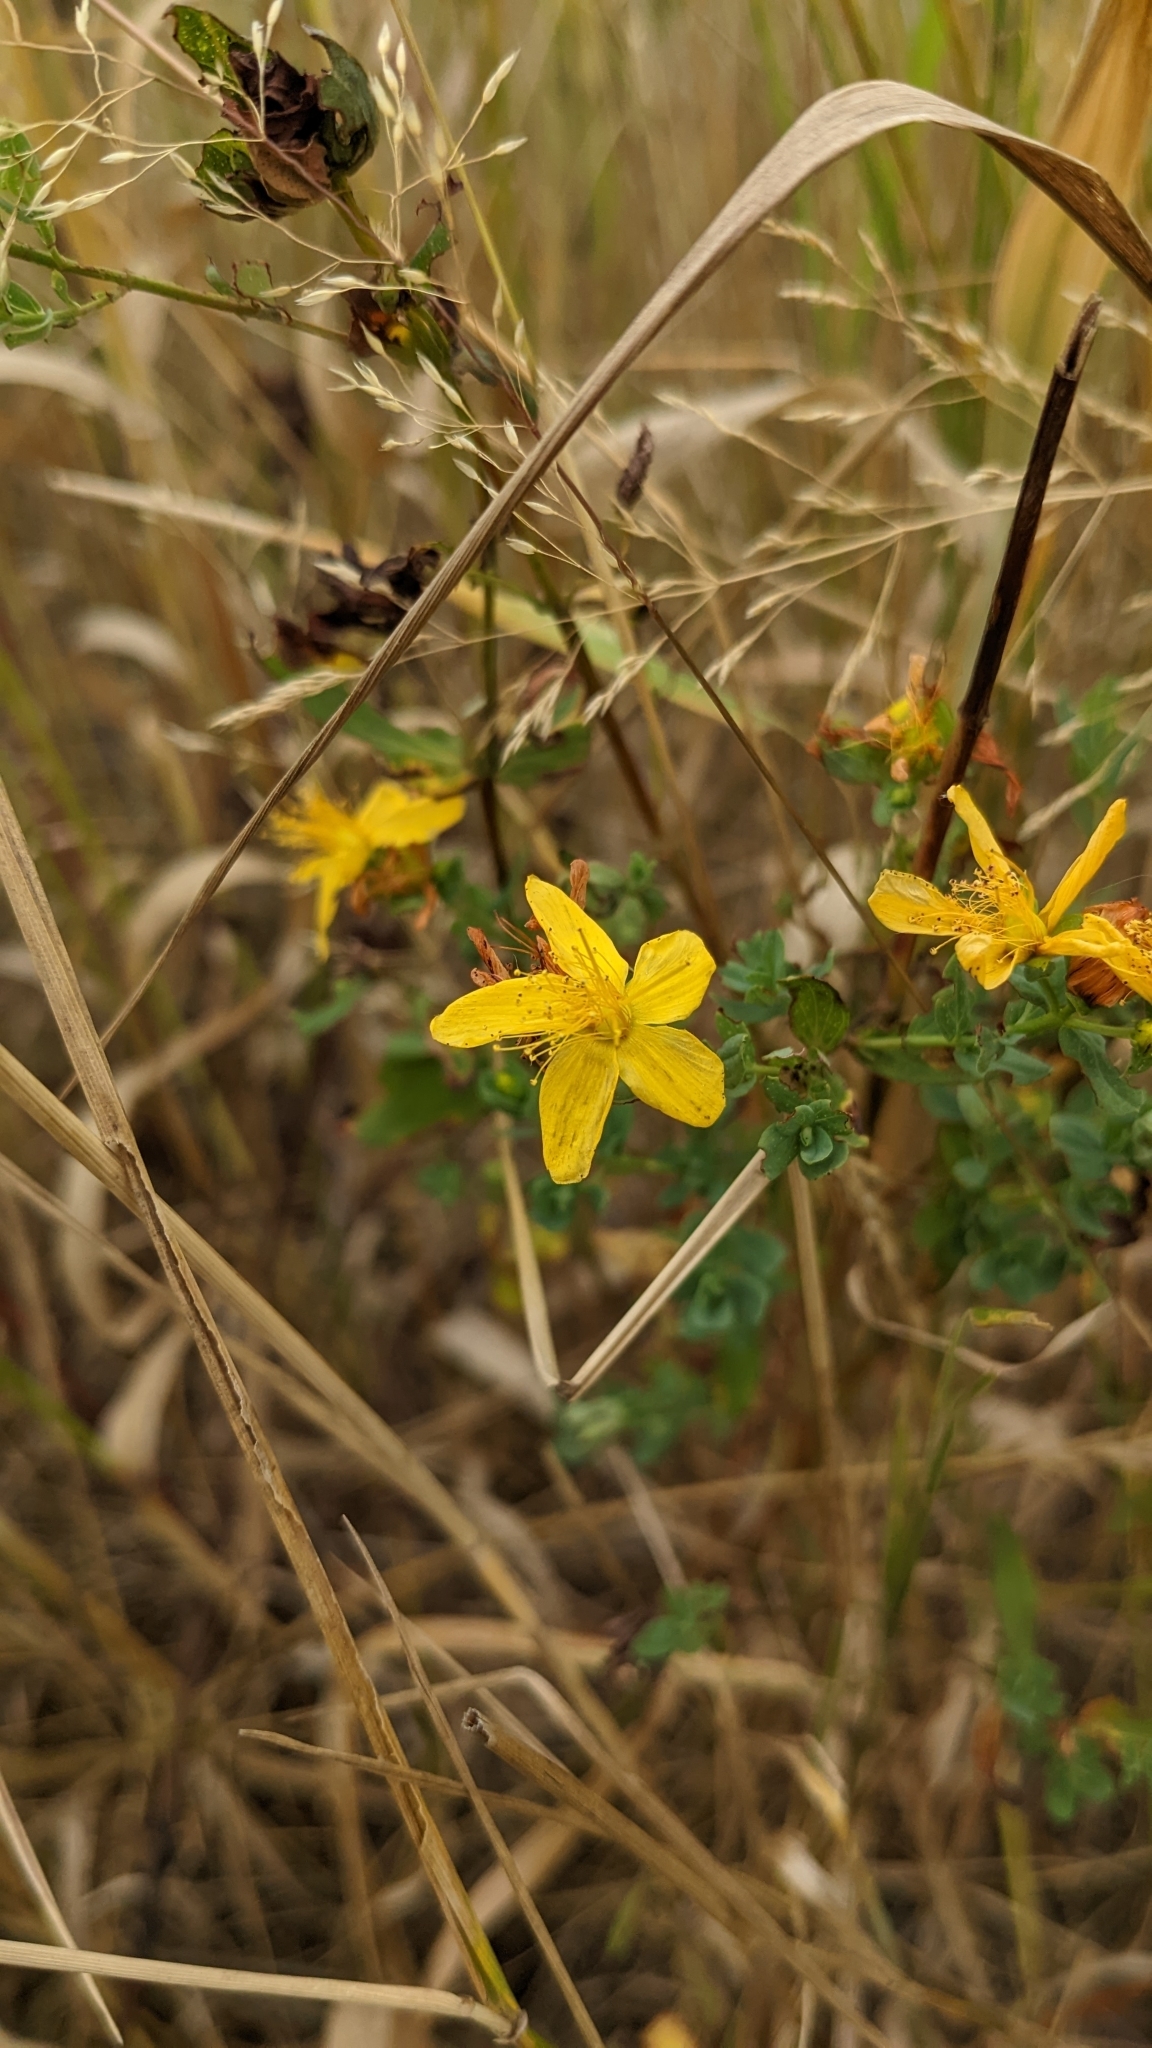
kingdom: Plantae
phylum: Tracheophyta
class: Magnoliopsida
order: Malpighiales
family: Hypericaceae
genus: Hypericum
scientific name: Hypericum perforatum
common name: Common st. johnswort
